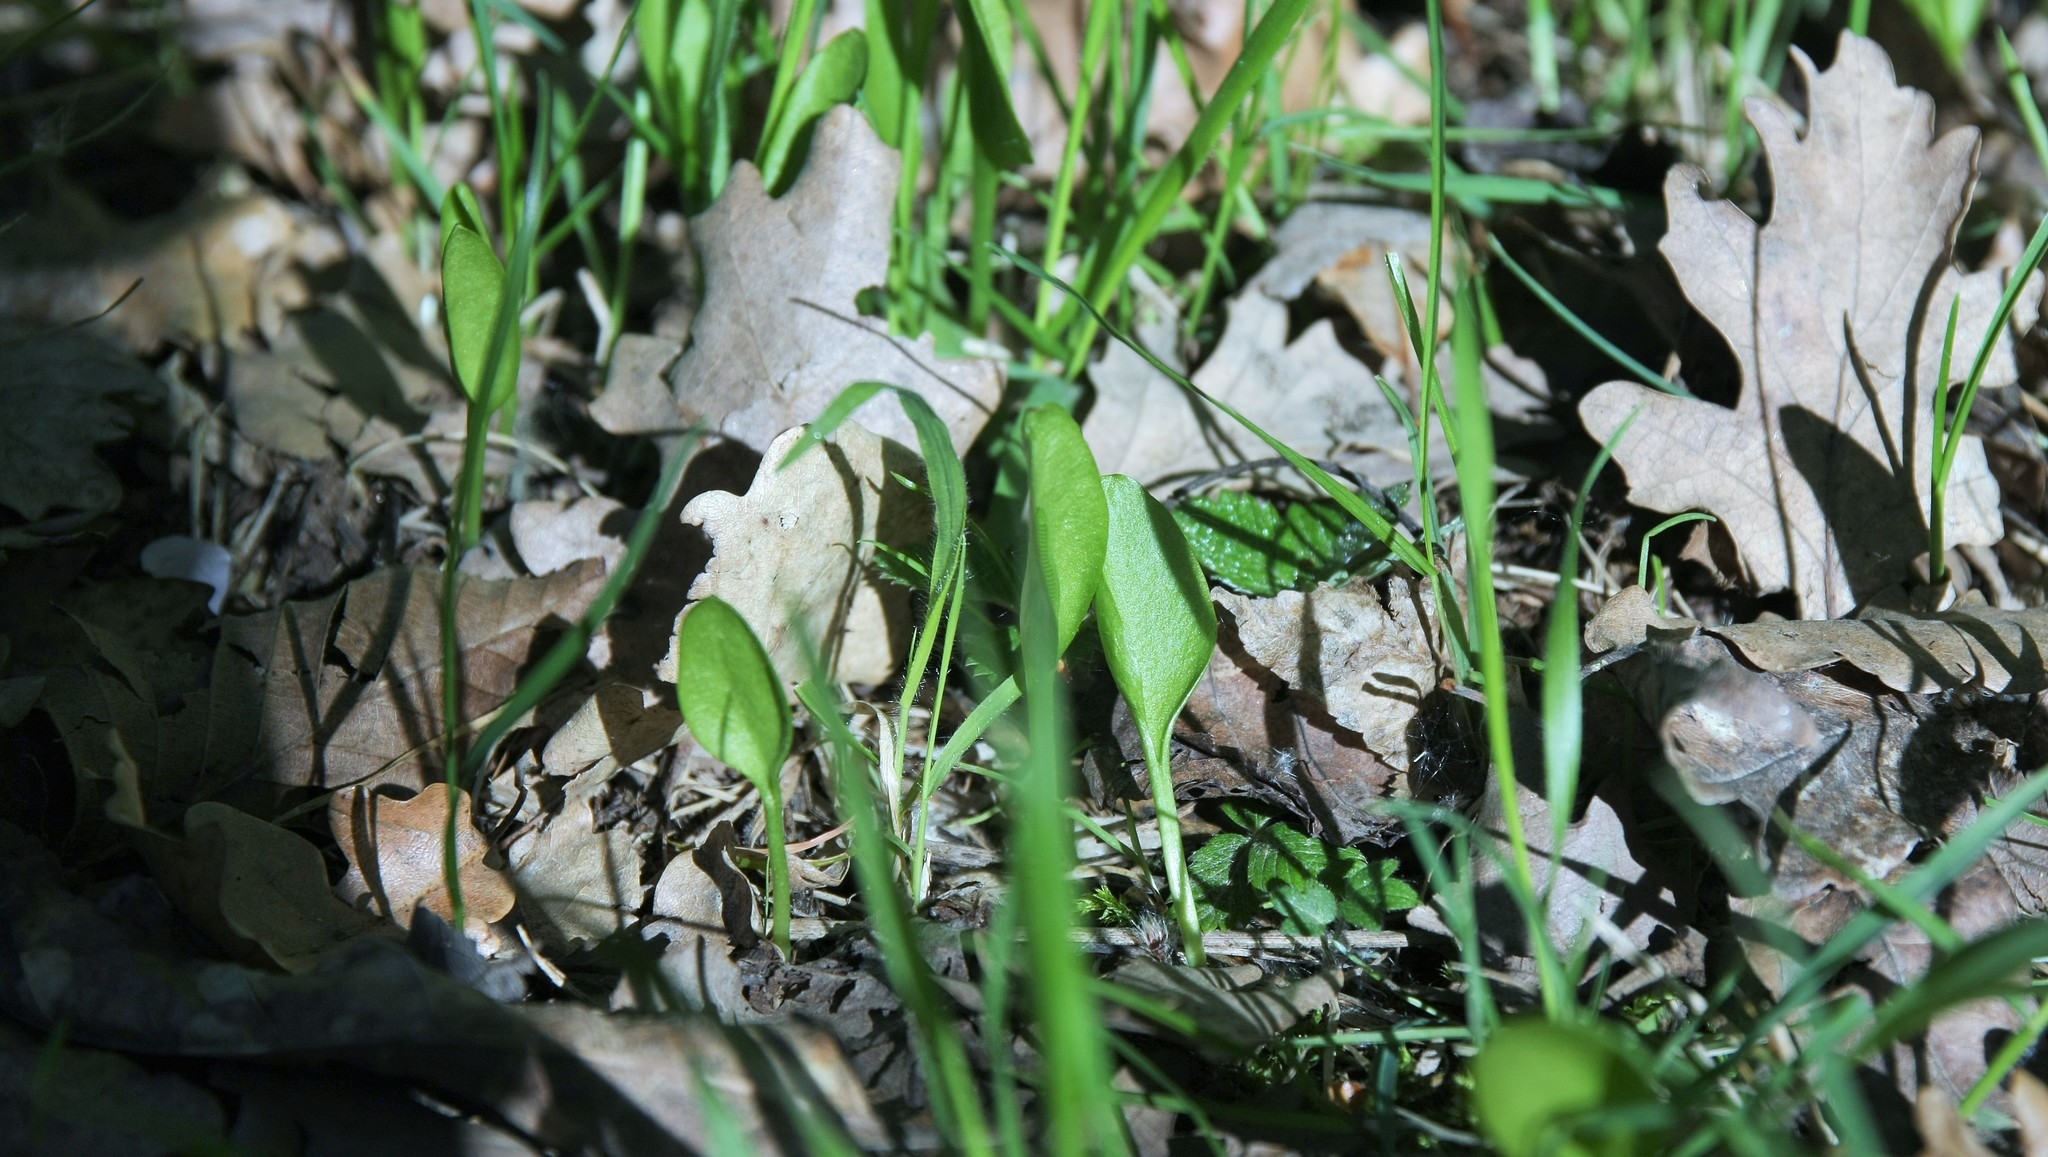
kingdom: Plantae
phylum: Tracheophyta
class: Polypodiopsida
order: Ophioglossales
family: Ophioglossaceae
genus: Ophioglossum
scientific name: Ophioglossum vulgatum
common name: Adder's-tongue
